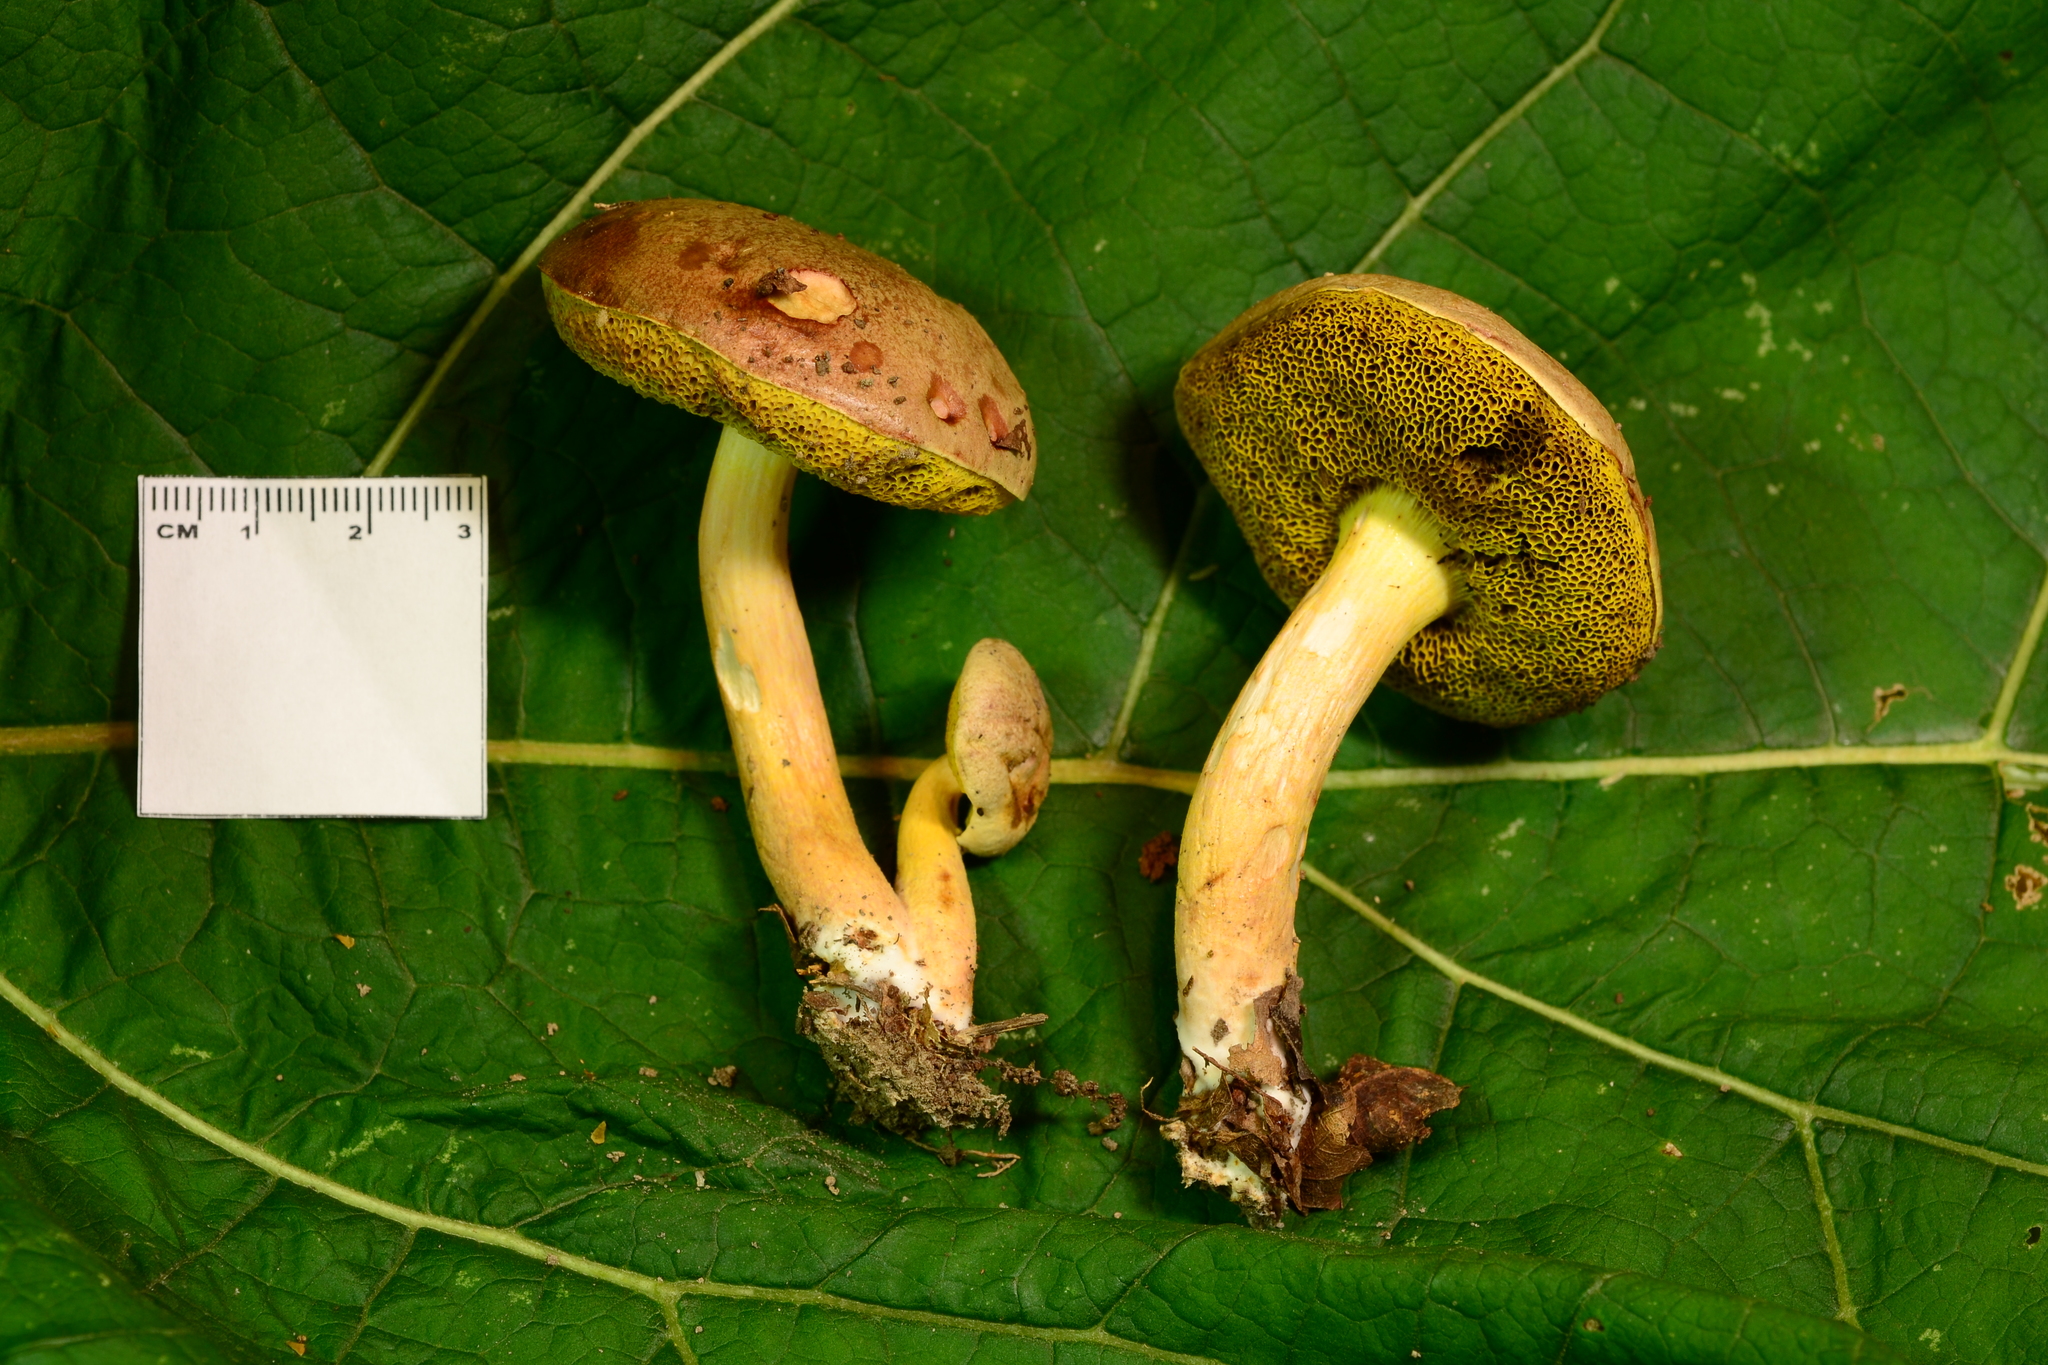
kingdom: Fungi
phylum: Basidiomycota
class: Agaricomycetes
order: Boletales
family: Boletaceae
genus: Aureoboletus
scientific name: Aureoboletus auriporus
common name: Sour gold-pored bolete
